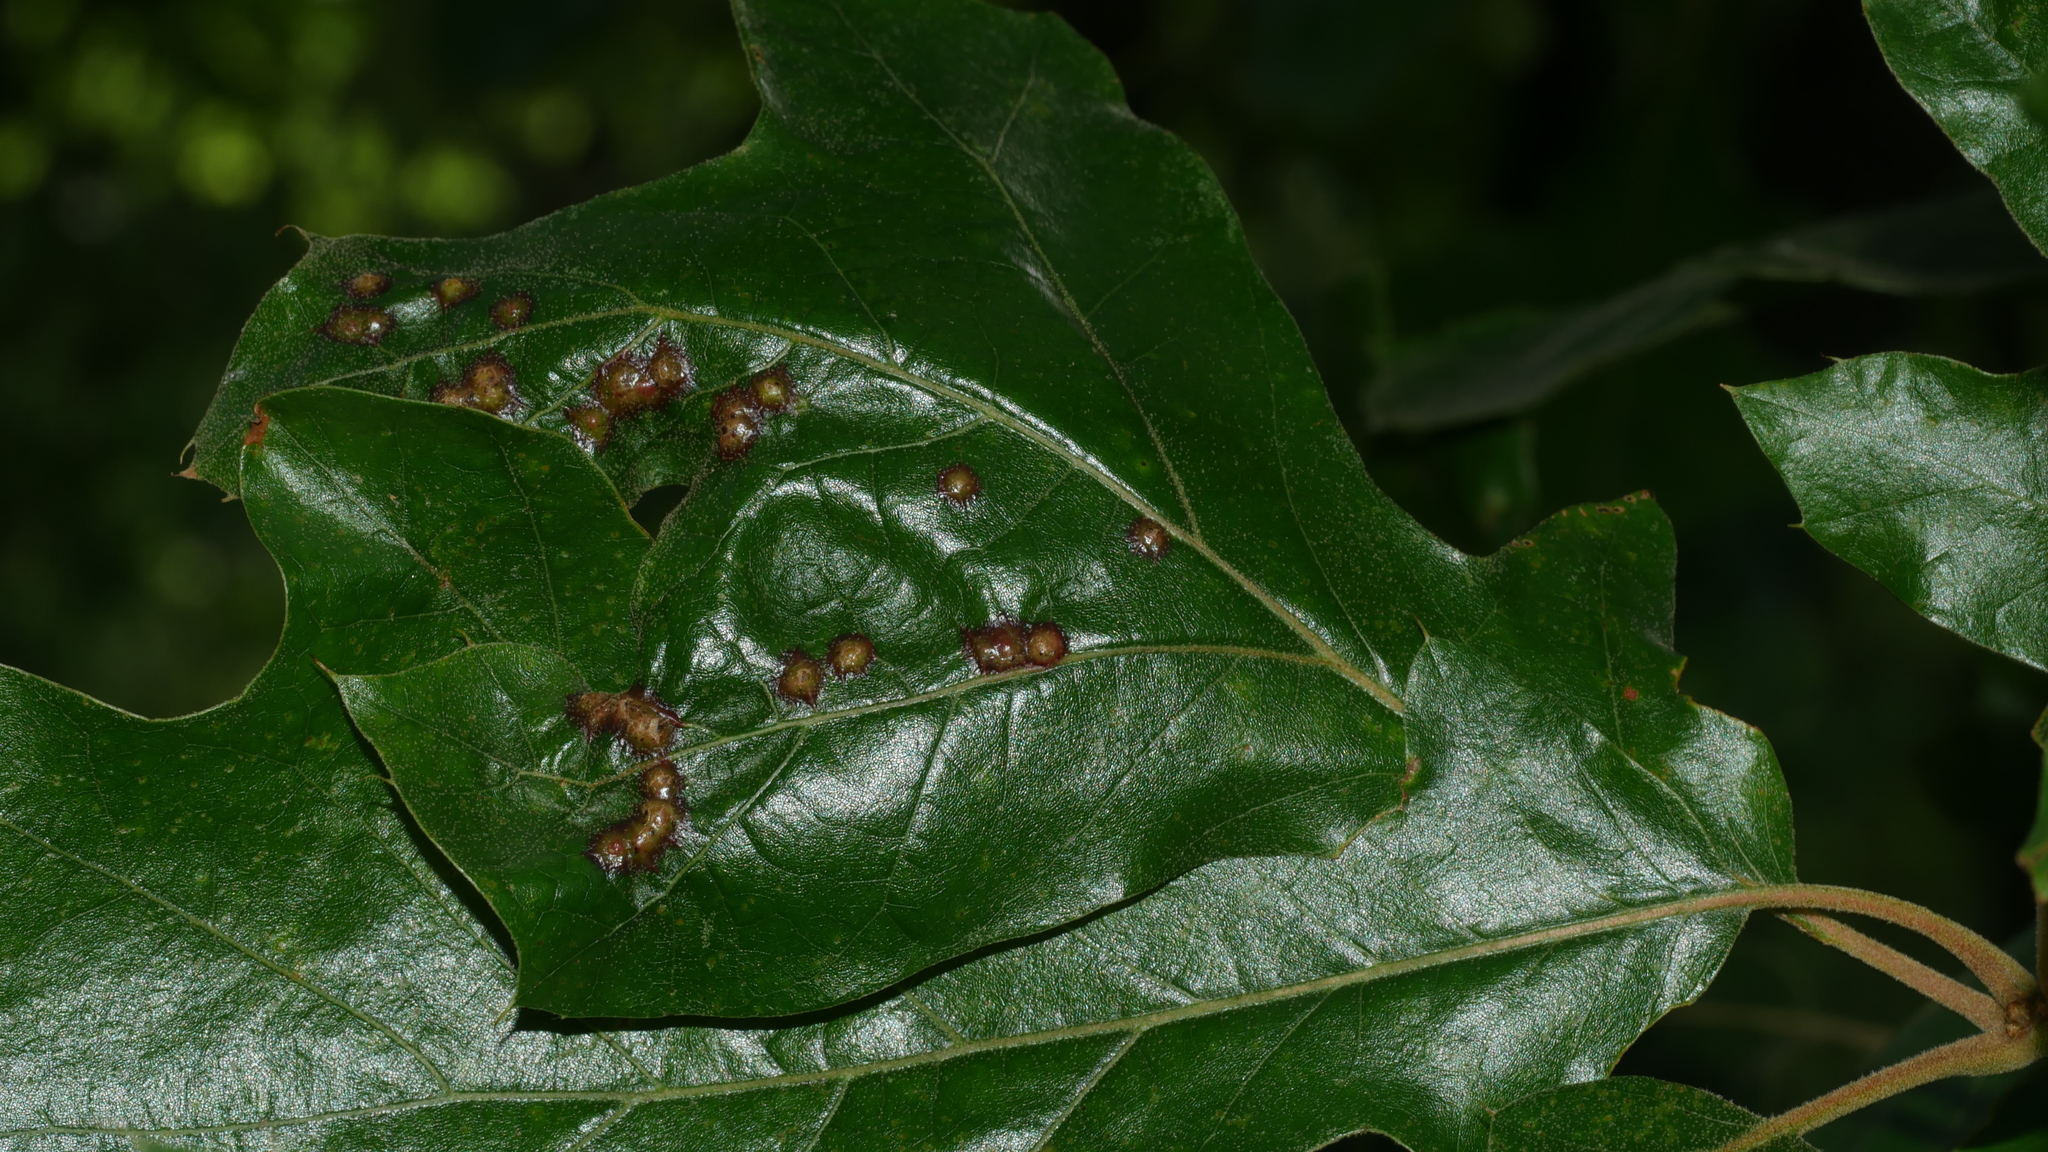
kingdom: Animalia
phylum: Arthropoda
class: Insecta
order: Diptera
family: Cecidomyiidae
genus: Polystepha
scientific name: Polystepha pilulae
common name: Oak leaf gall midge
